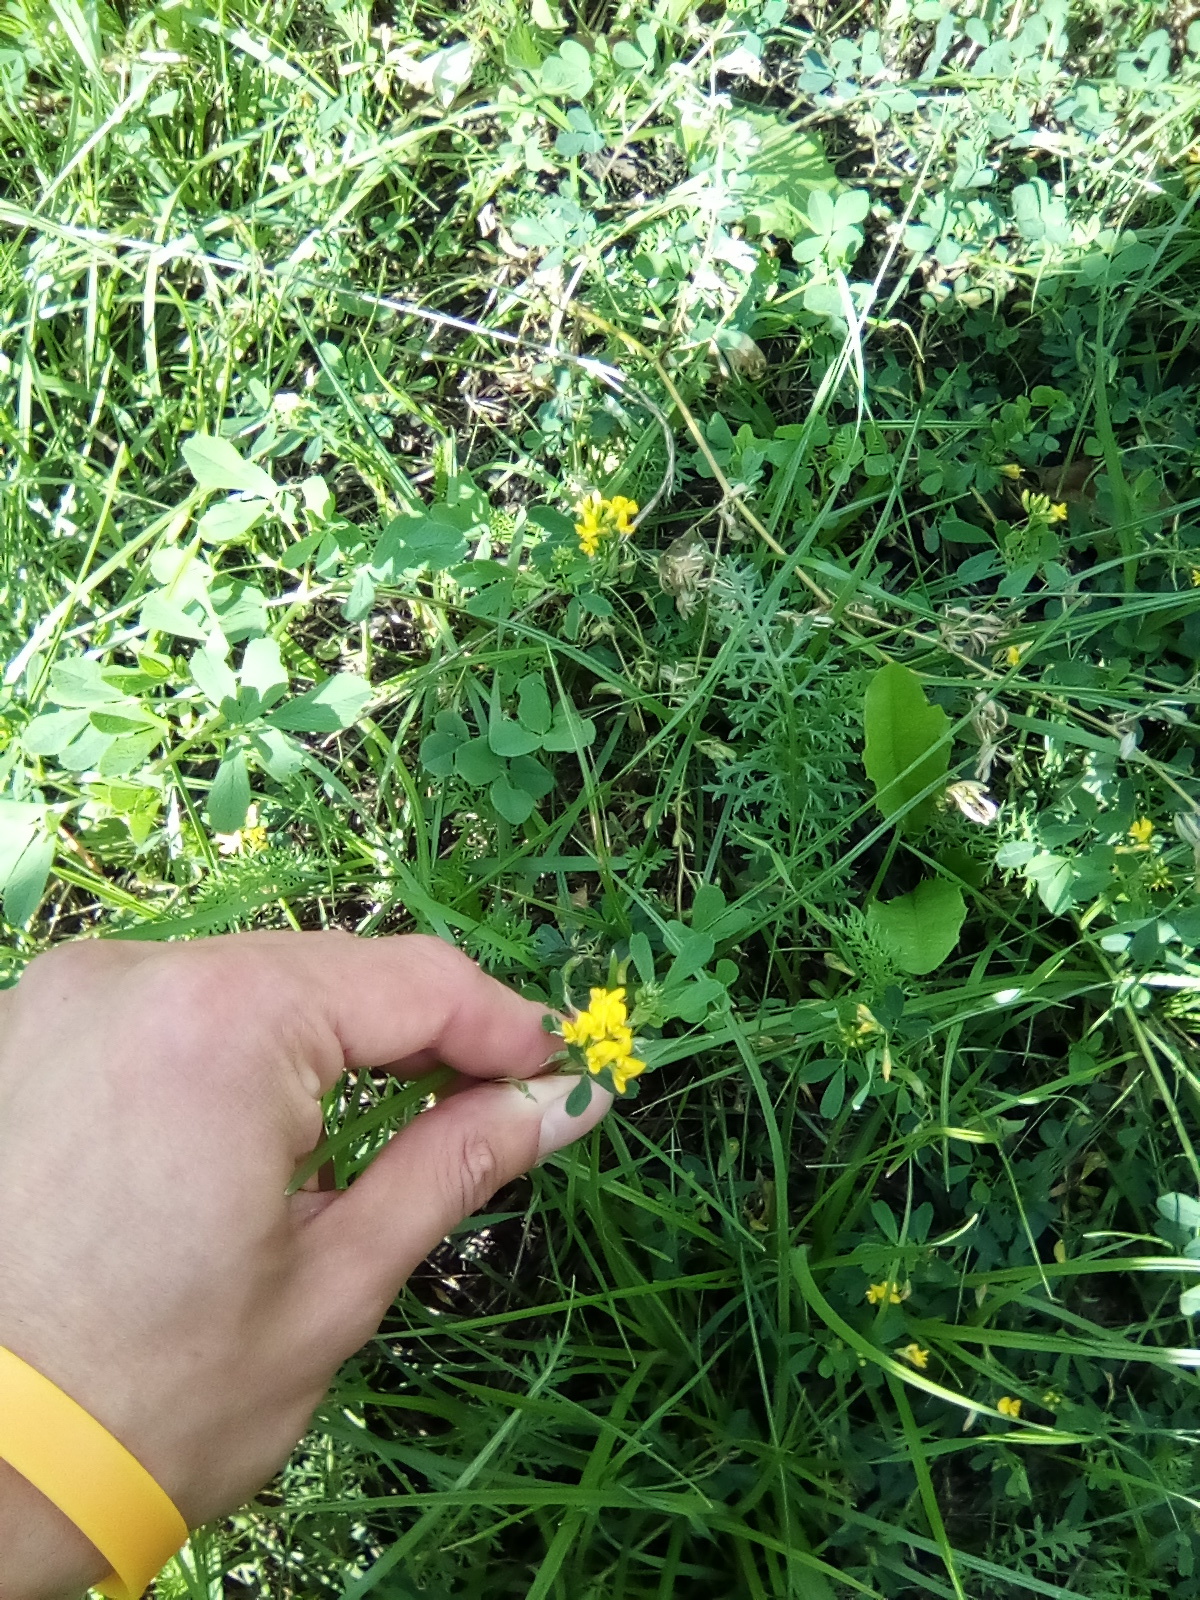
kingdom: Plantae
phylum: Tracheophyta
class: Magnoliopsida
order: Fabales
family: Fabaceae
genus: Medicago
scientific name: Medicago falcata
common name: Sickle medick
